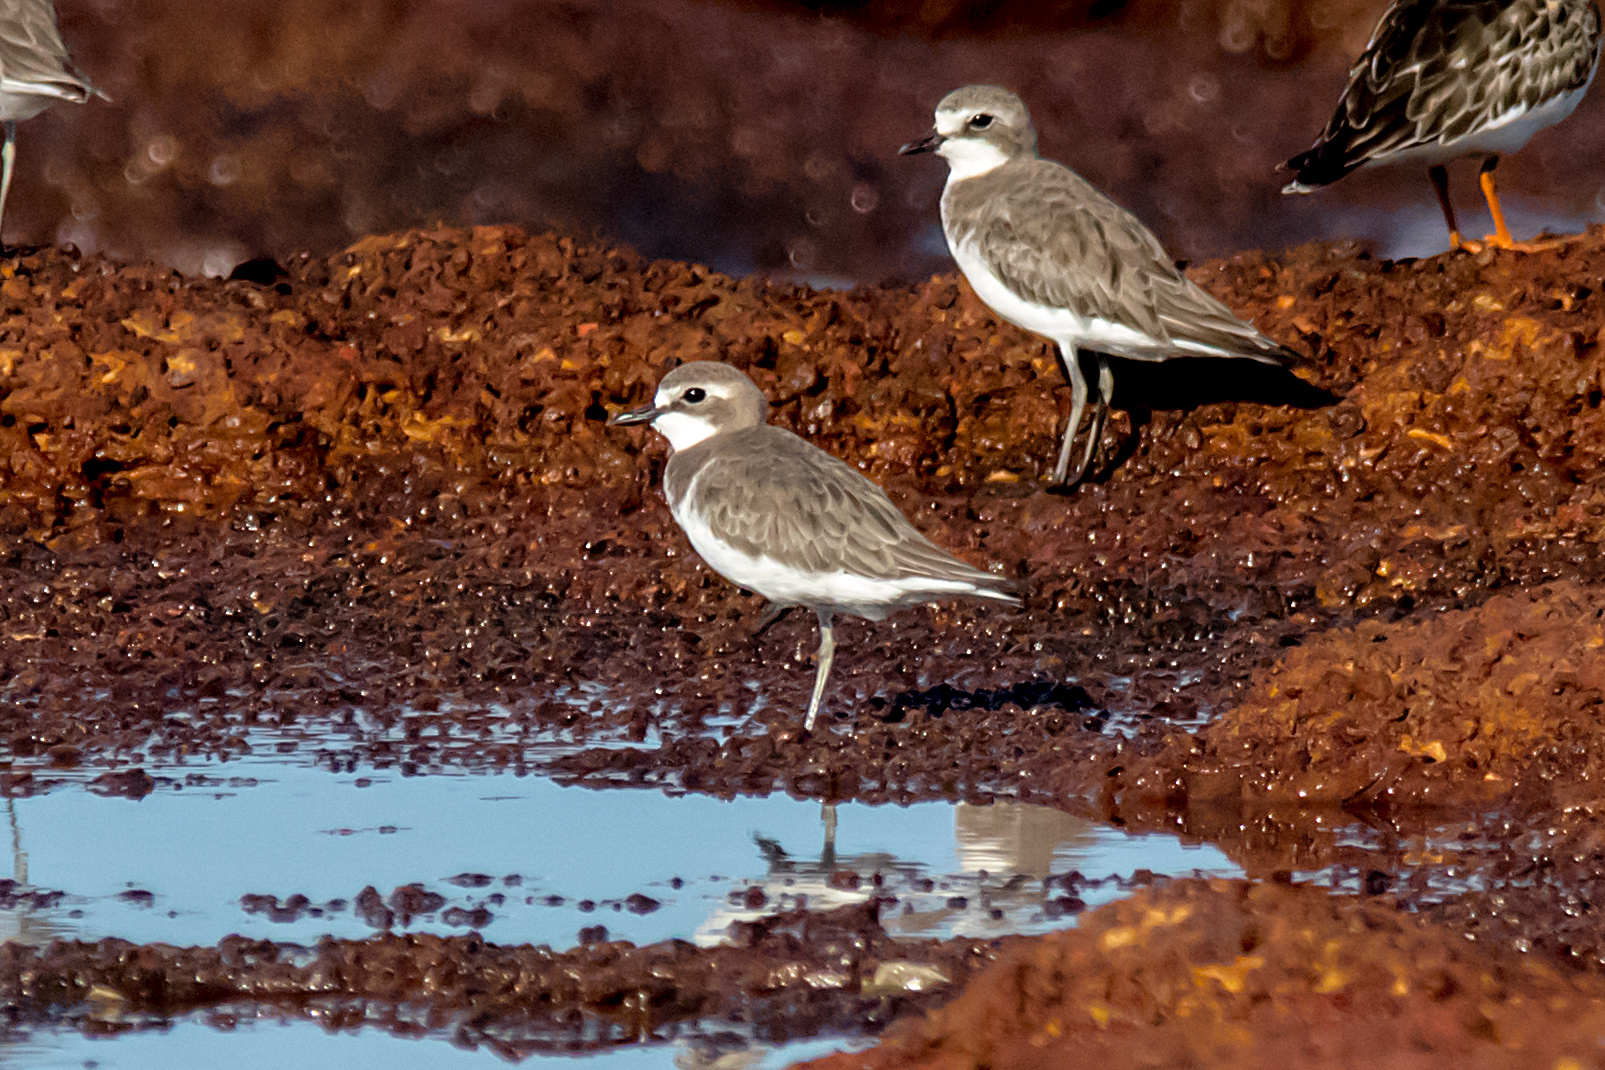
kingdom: Animalia
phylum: Chordata
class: Aves
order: Charadriiformes
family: Charadriidae
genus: Anarhynchus
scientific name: Anarhynchus
